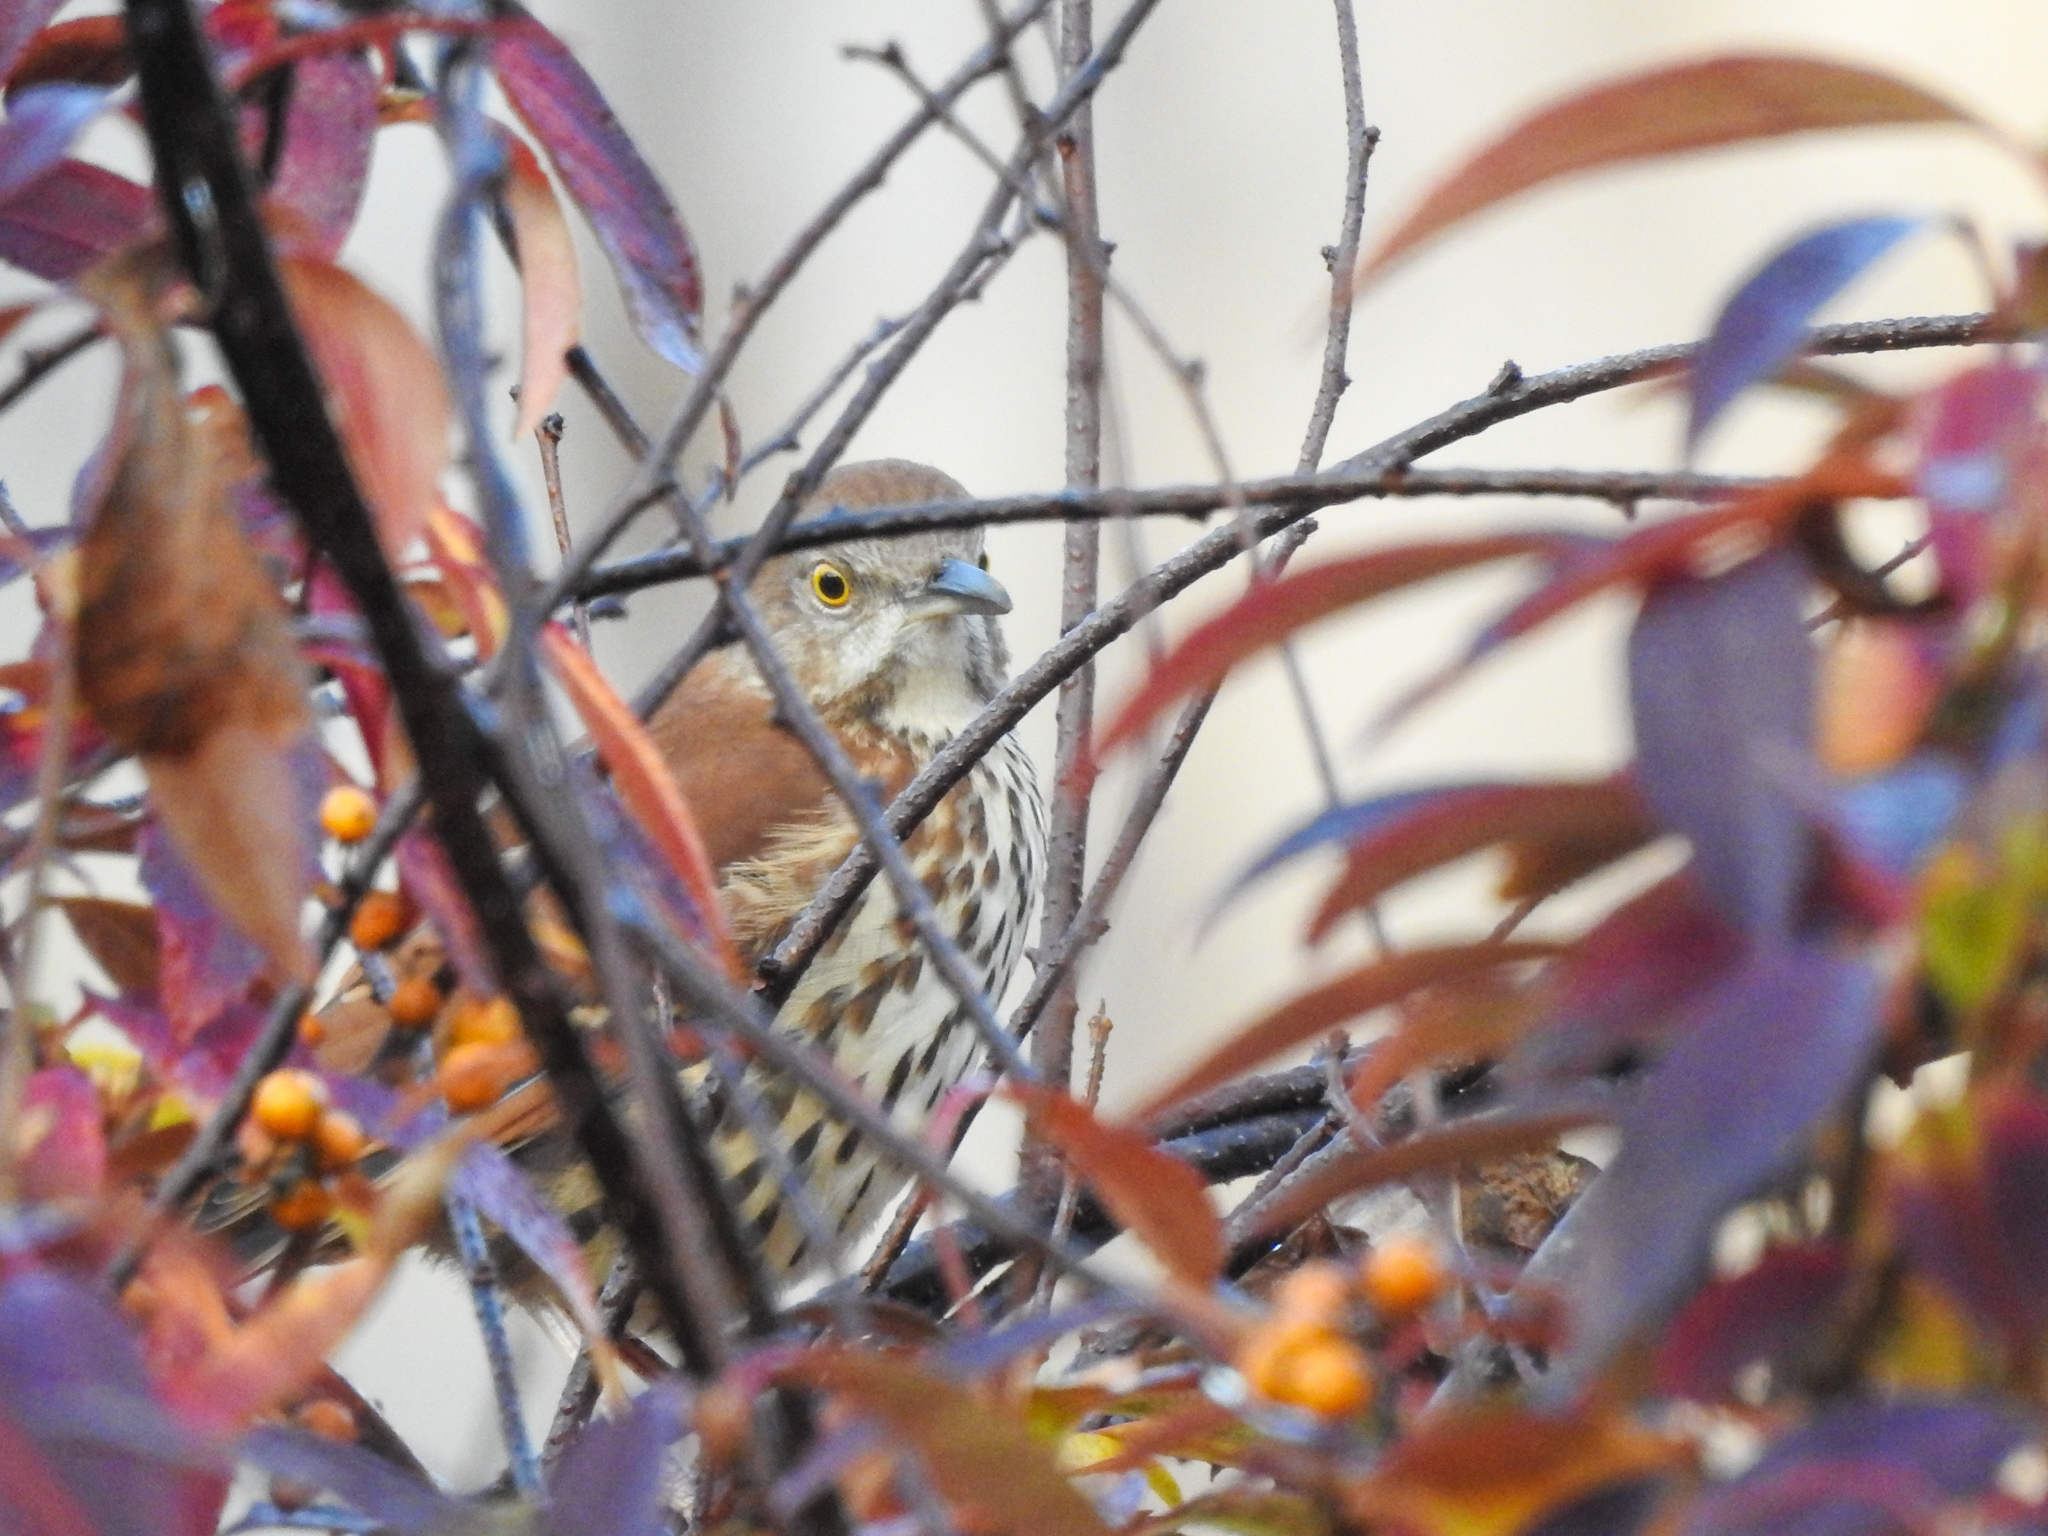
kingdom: Animalia
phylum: Chordata
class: Aves
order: Passeriformes
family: Mimidae
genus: Toxostoma
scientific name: Toxostoma rufum
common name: Brown thrasher
